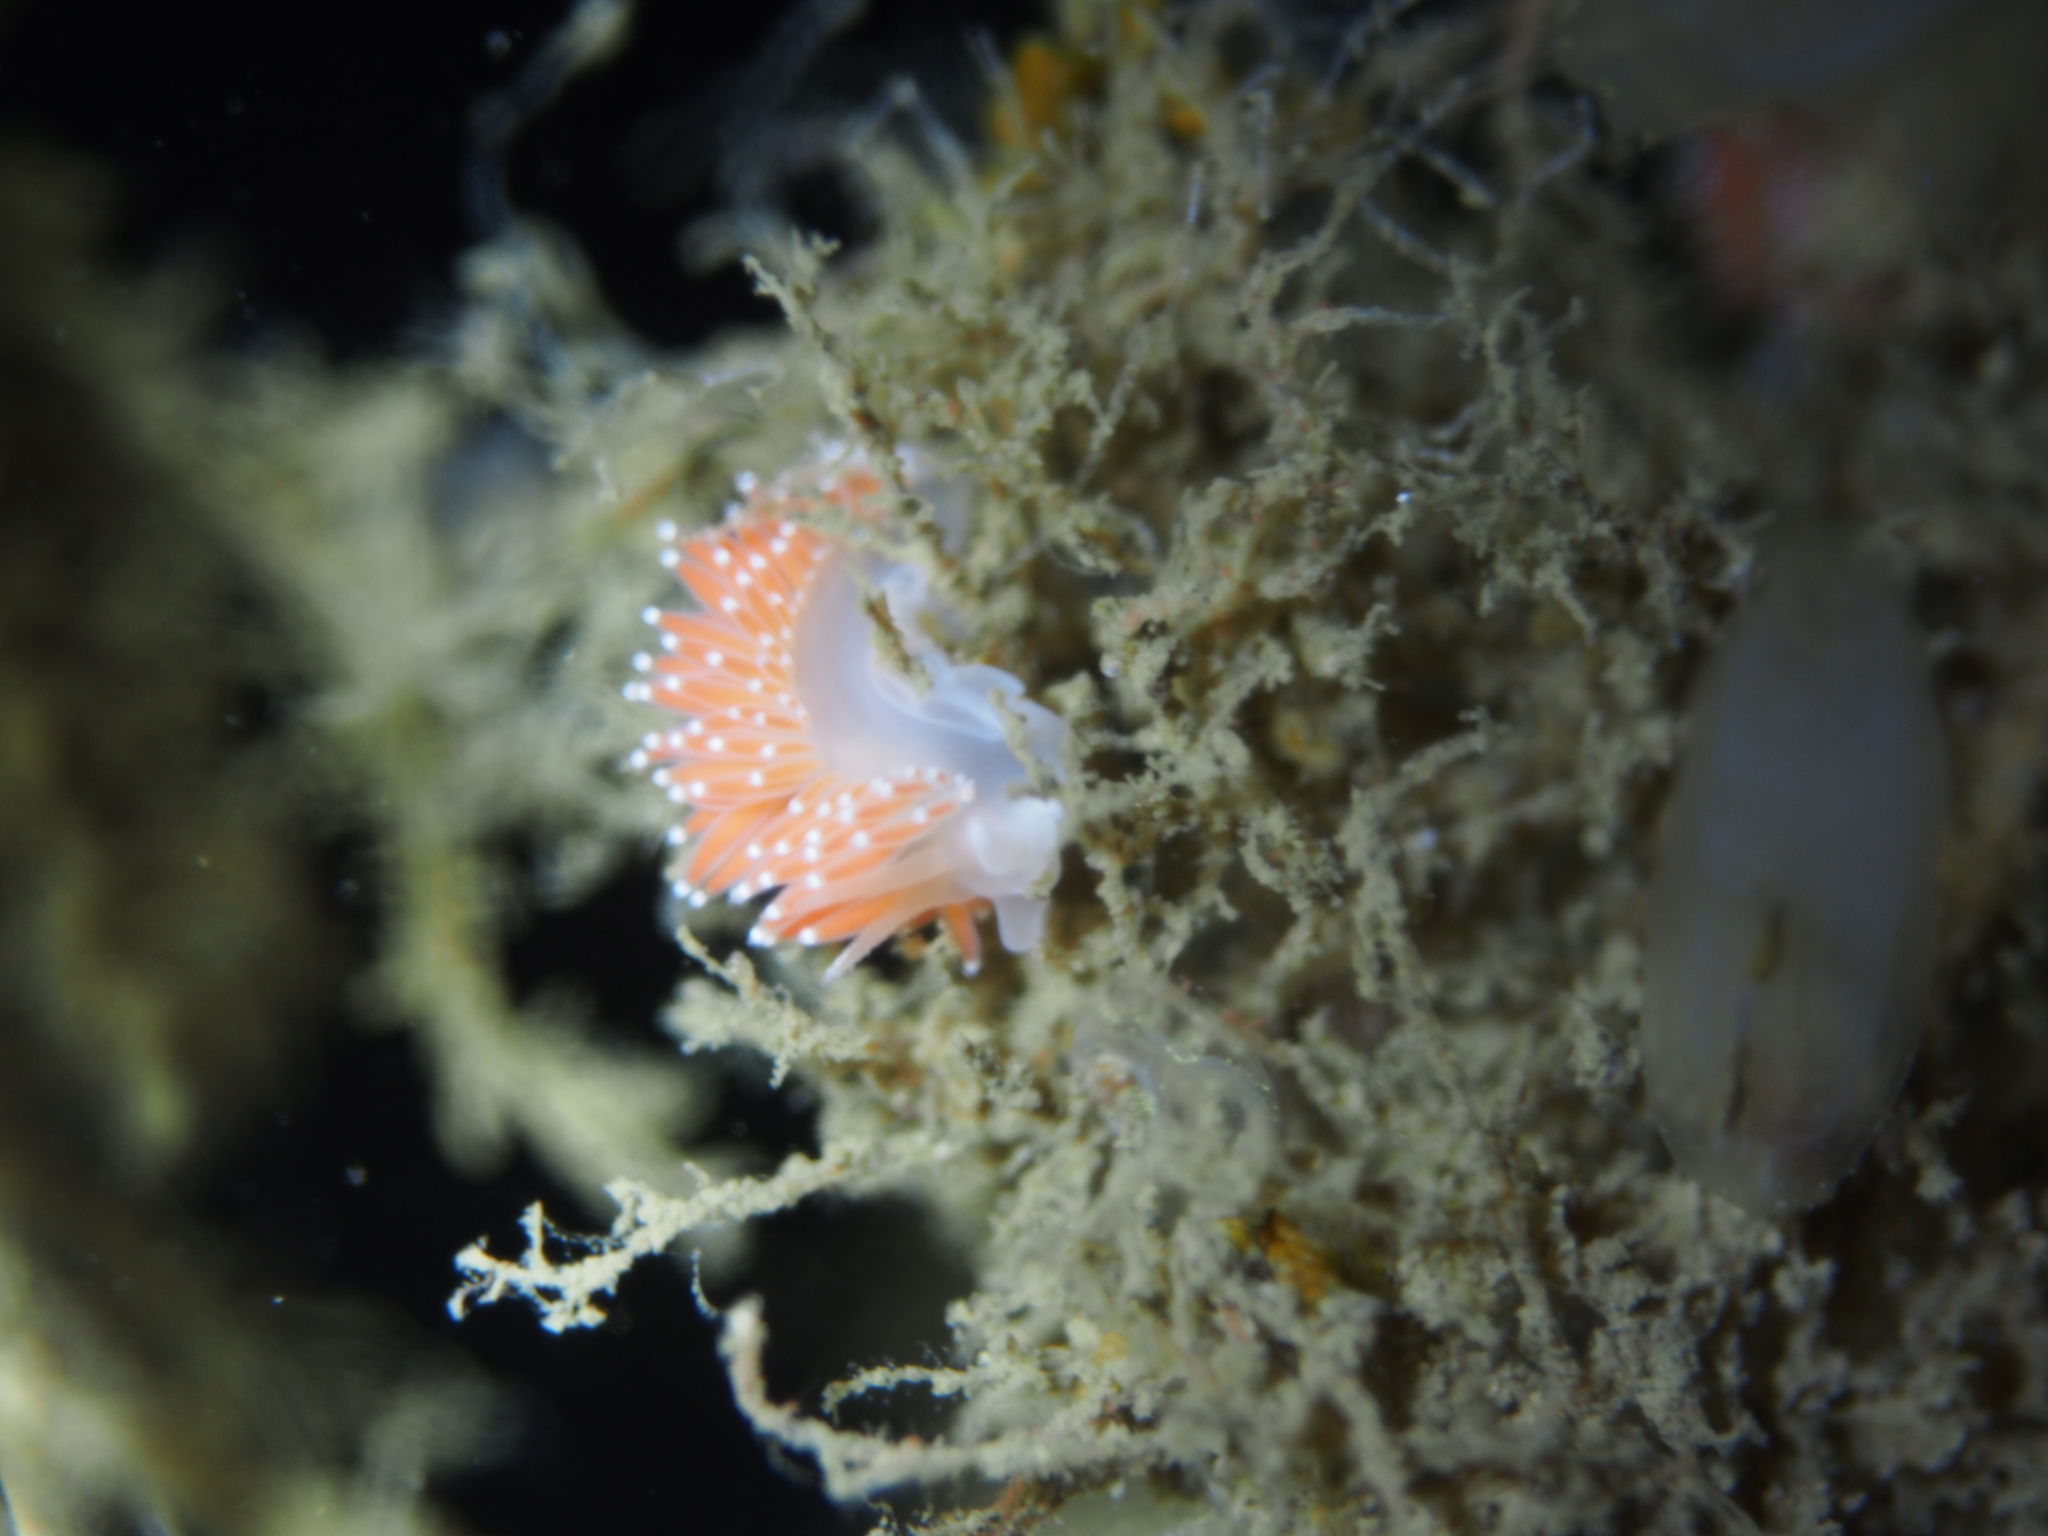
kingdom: Animalia
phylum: Mollusca
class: Gastropoda
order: Nudibranchia
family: Coryphellidae
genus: Coryphella
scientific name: Coryphella verrucosa
